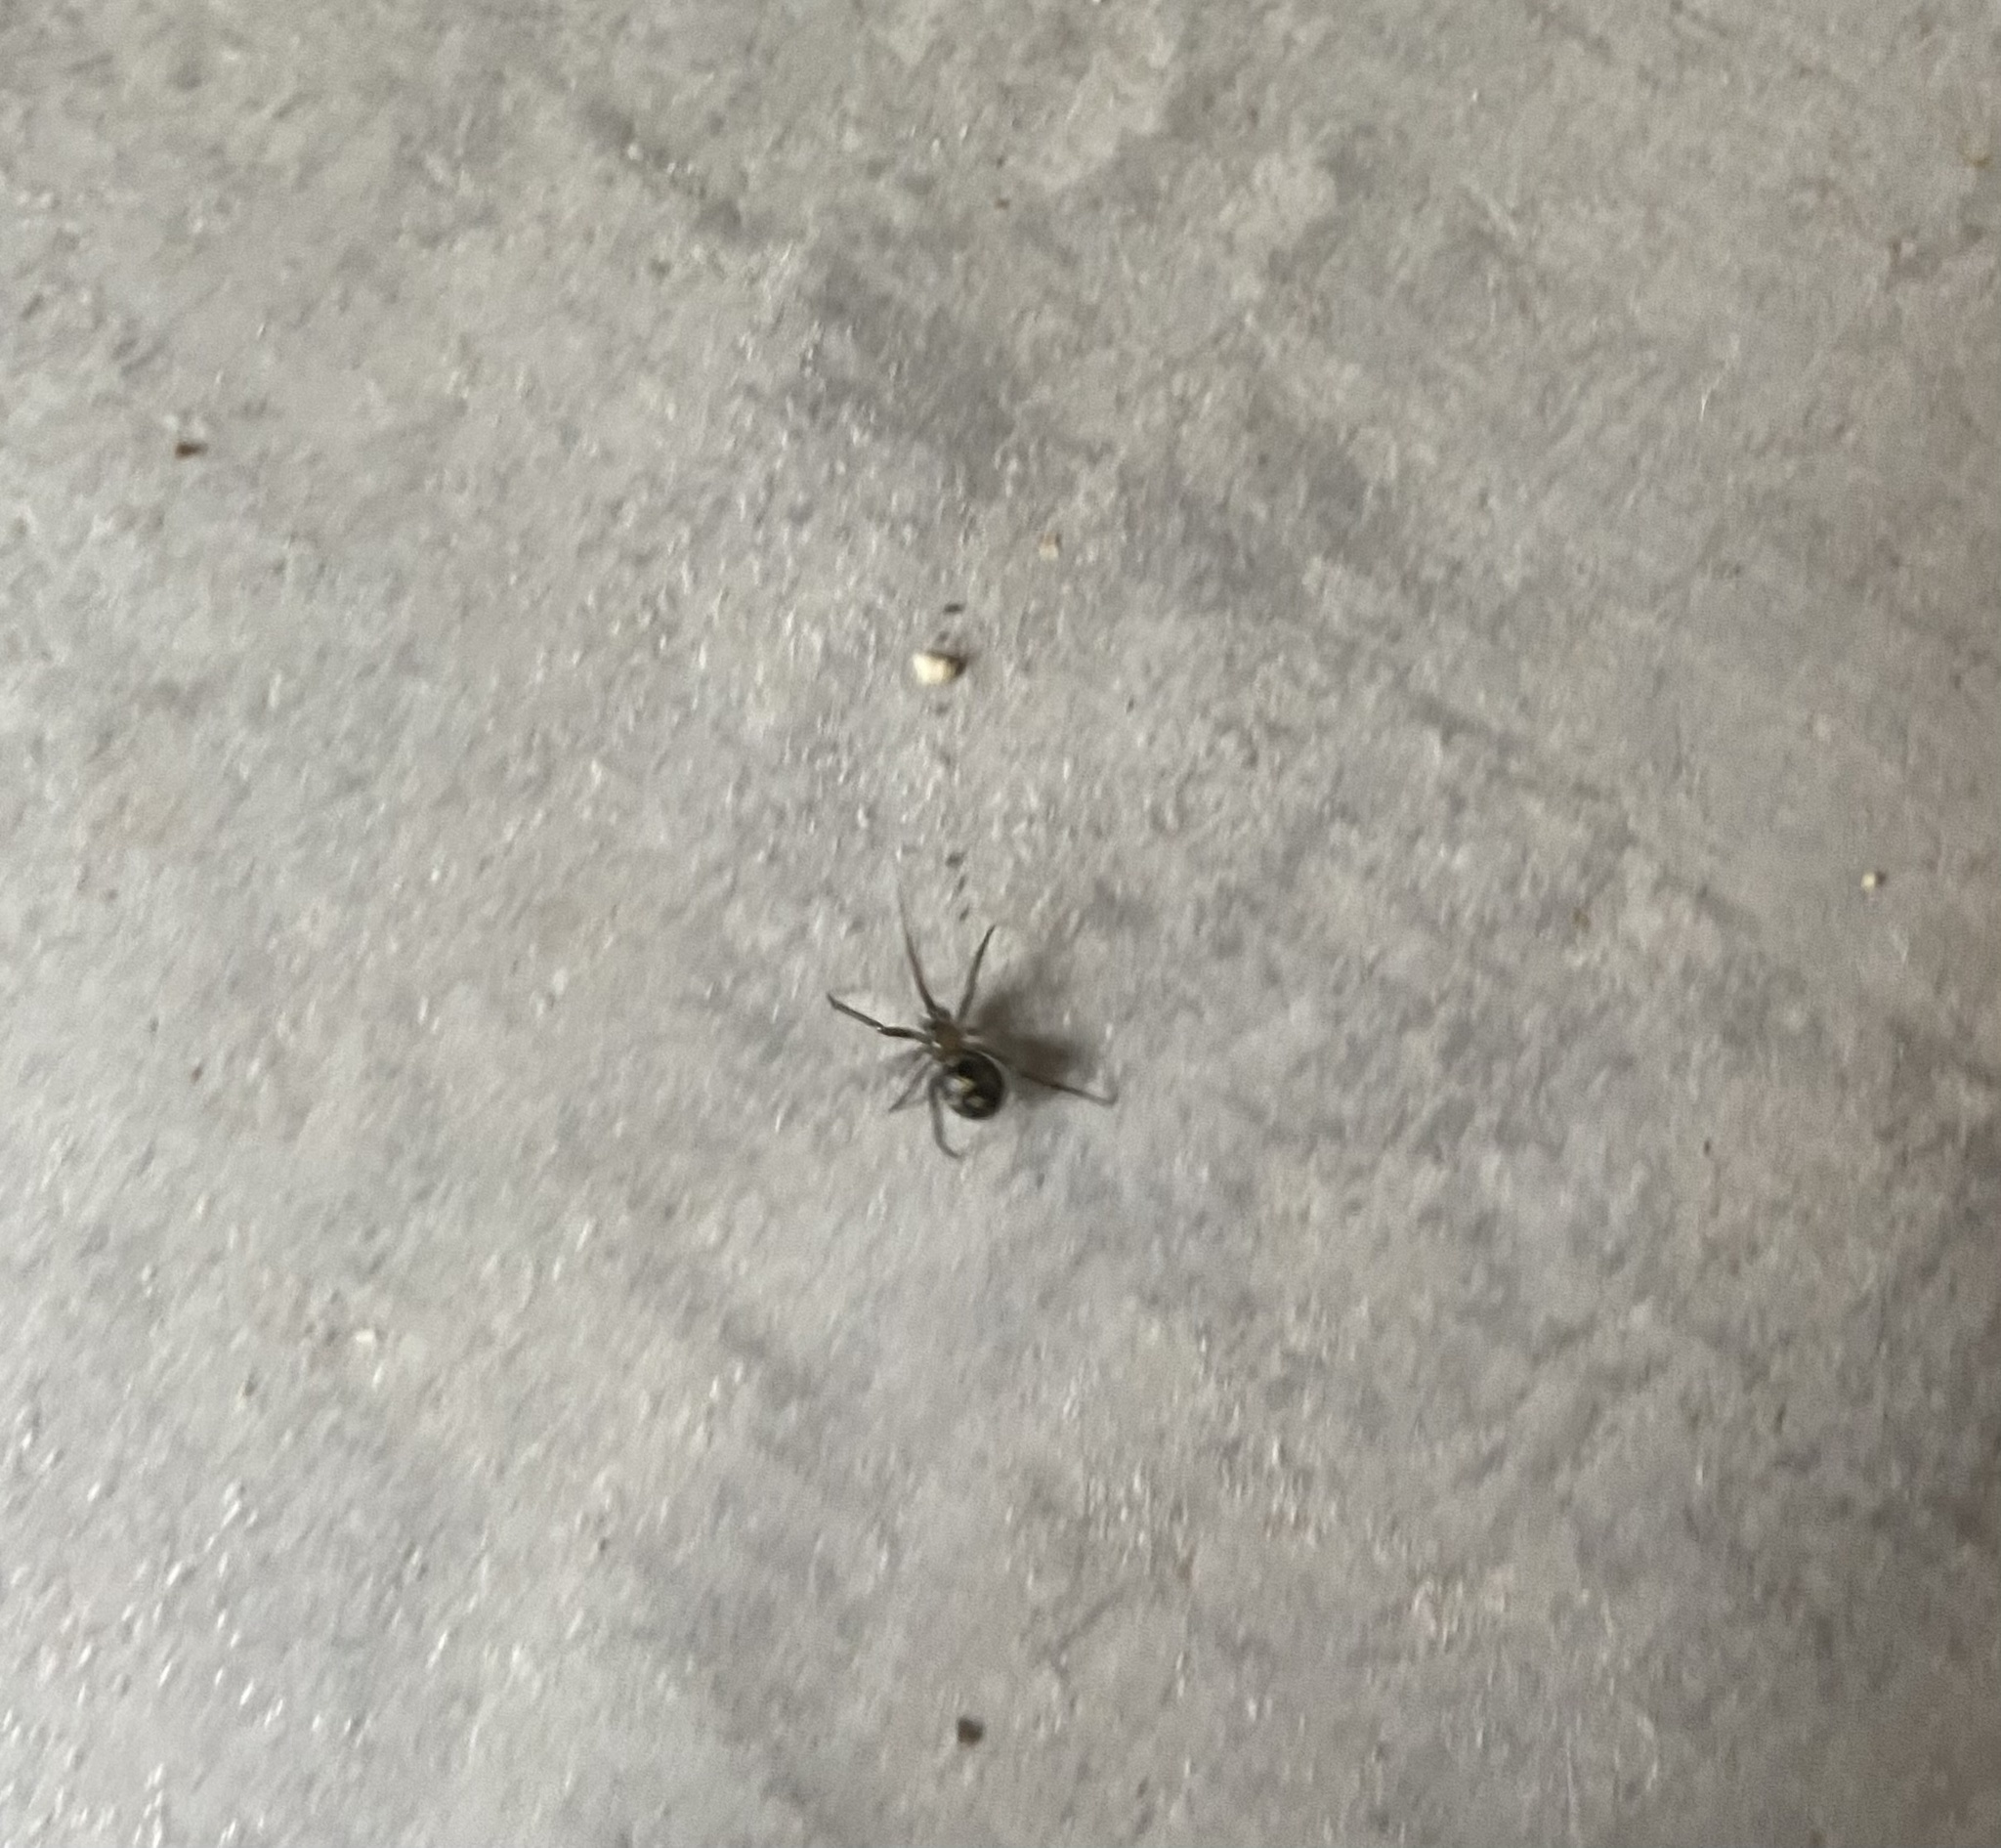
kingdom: Animalia
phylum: Arthropoda
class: Arachnida
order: Araneae
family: Theridiidae
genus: Steatoda
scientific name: Steatoda grossa
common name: False black widow
